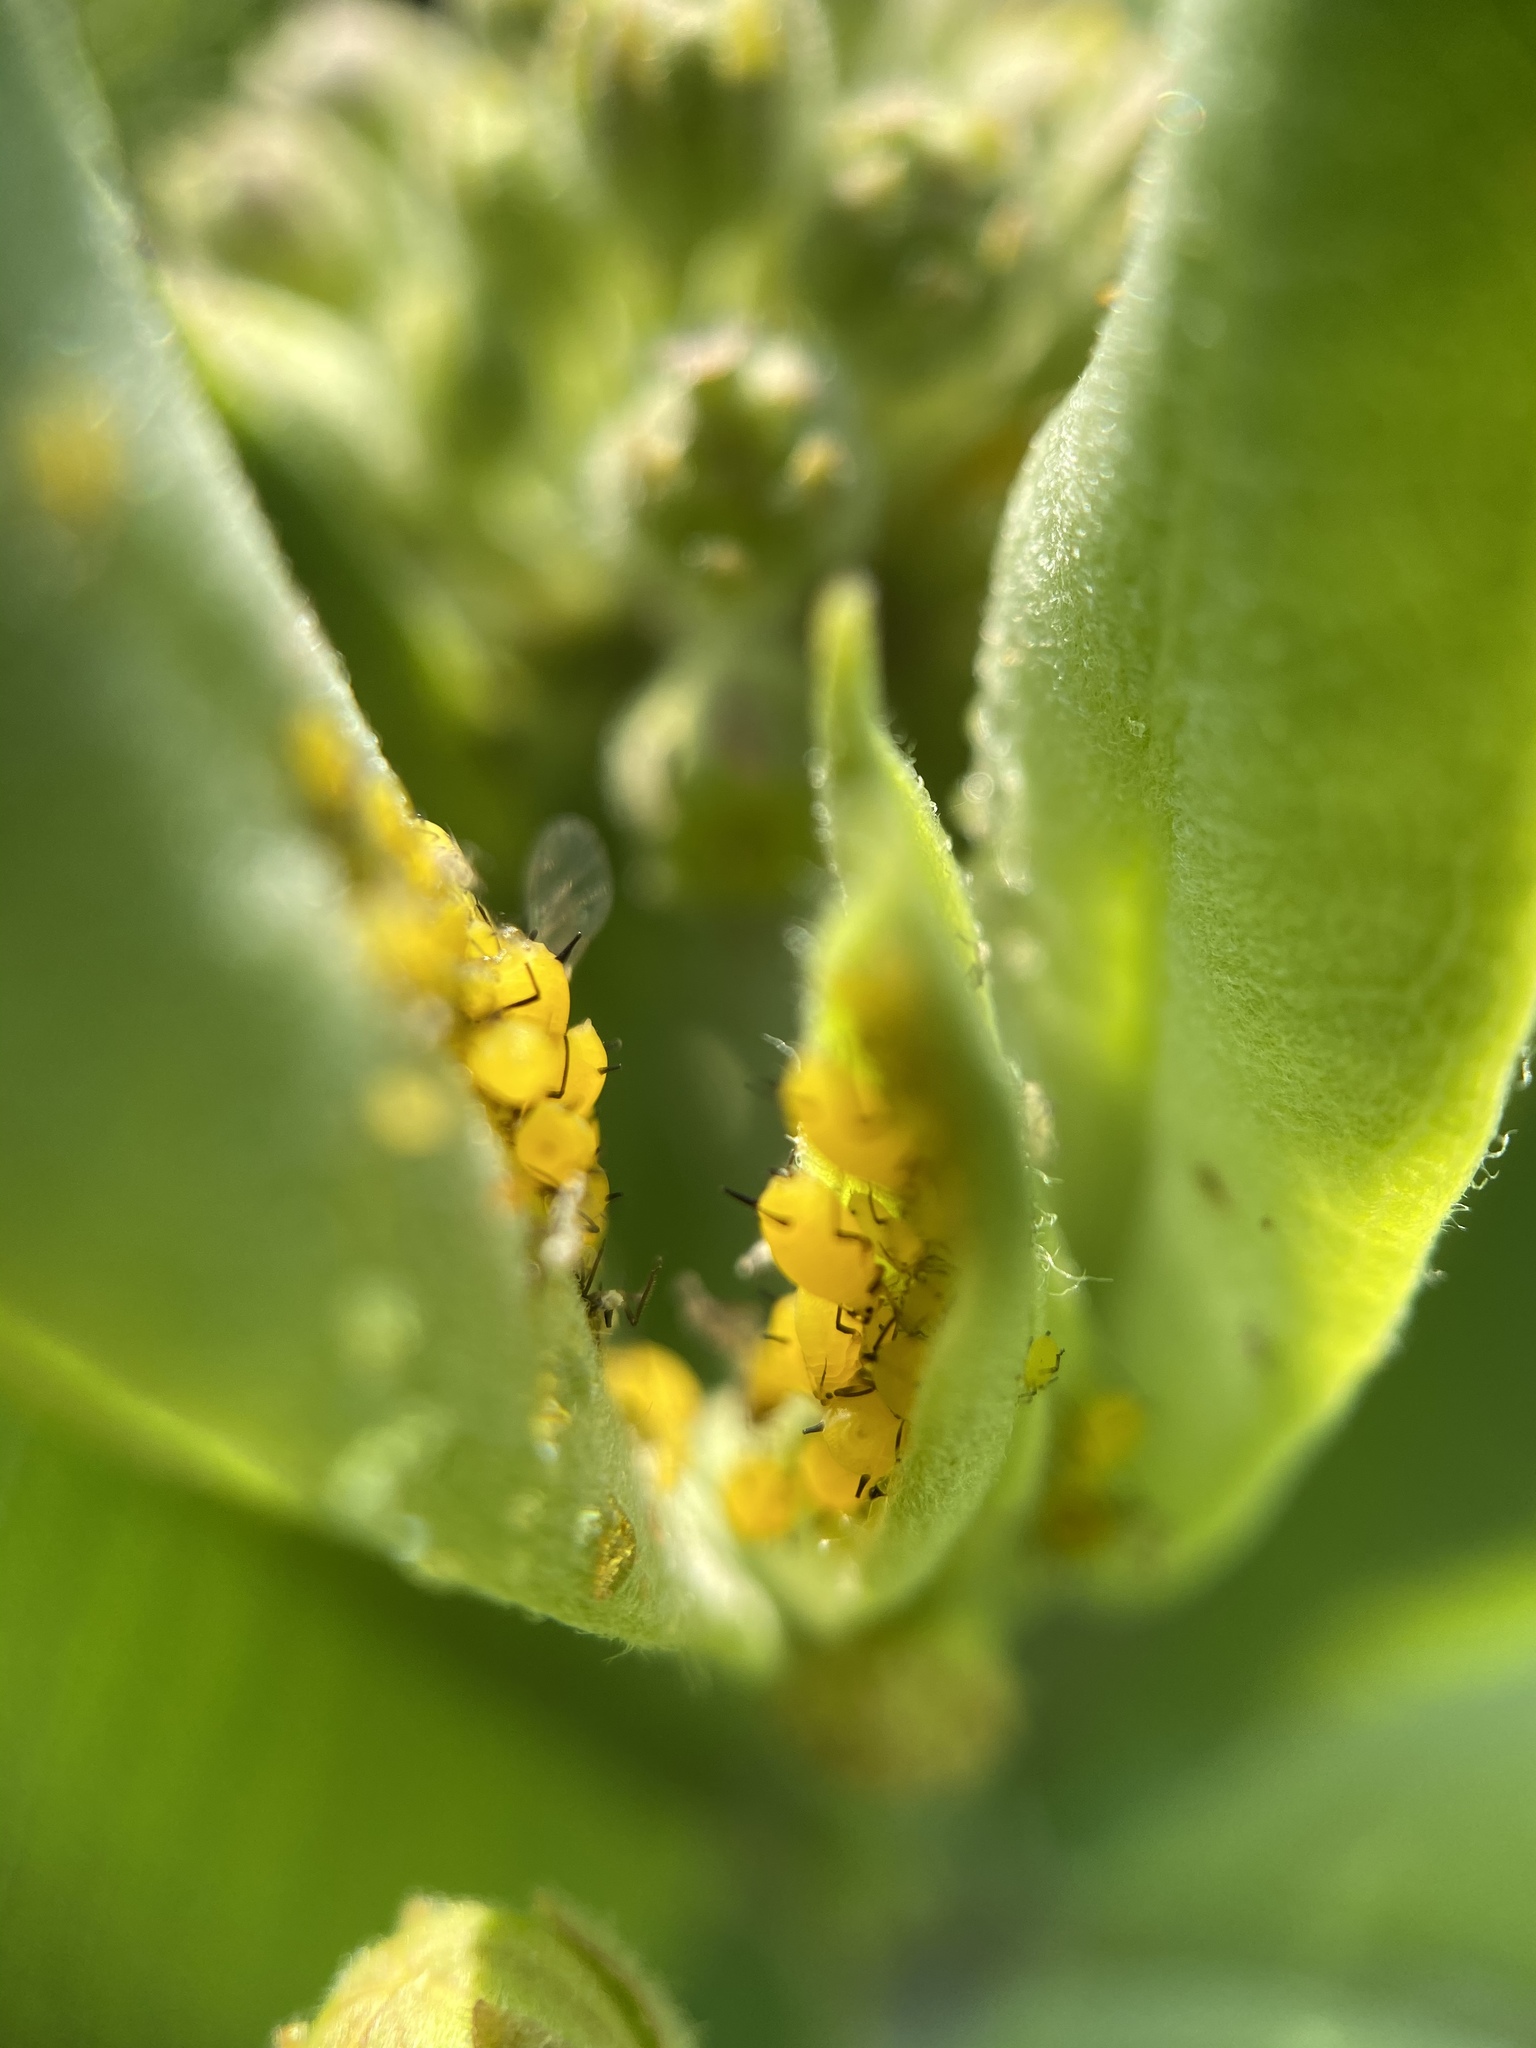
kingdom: Animalia
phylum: Arthropoda
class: Insecta
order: Hemiptera
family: Aphididae
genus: Aphis
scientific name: Aphis nerii
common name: Oleander aphid
